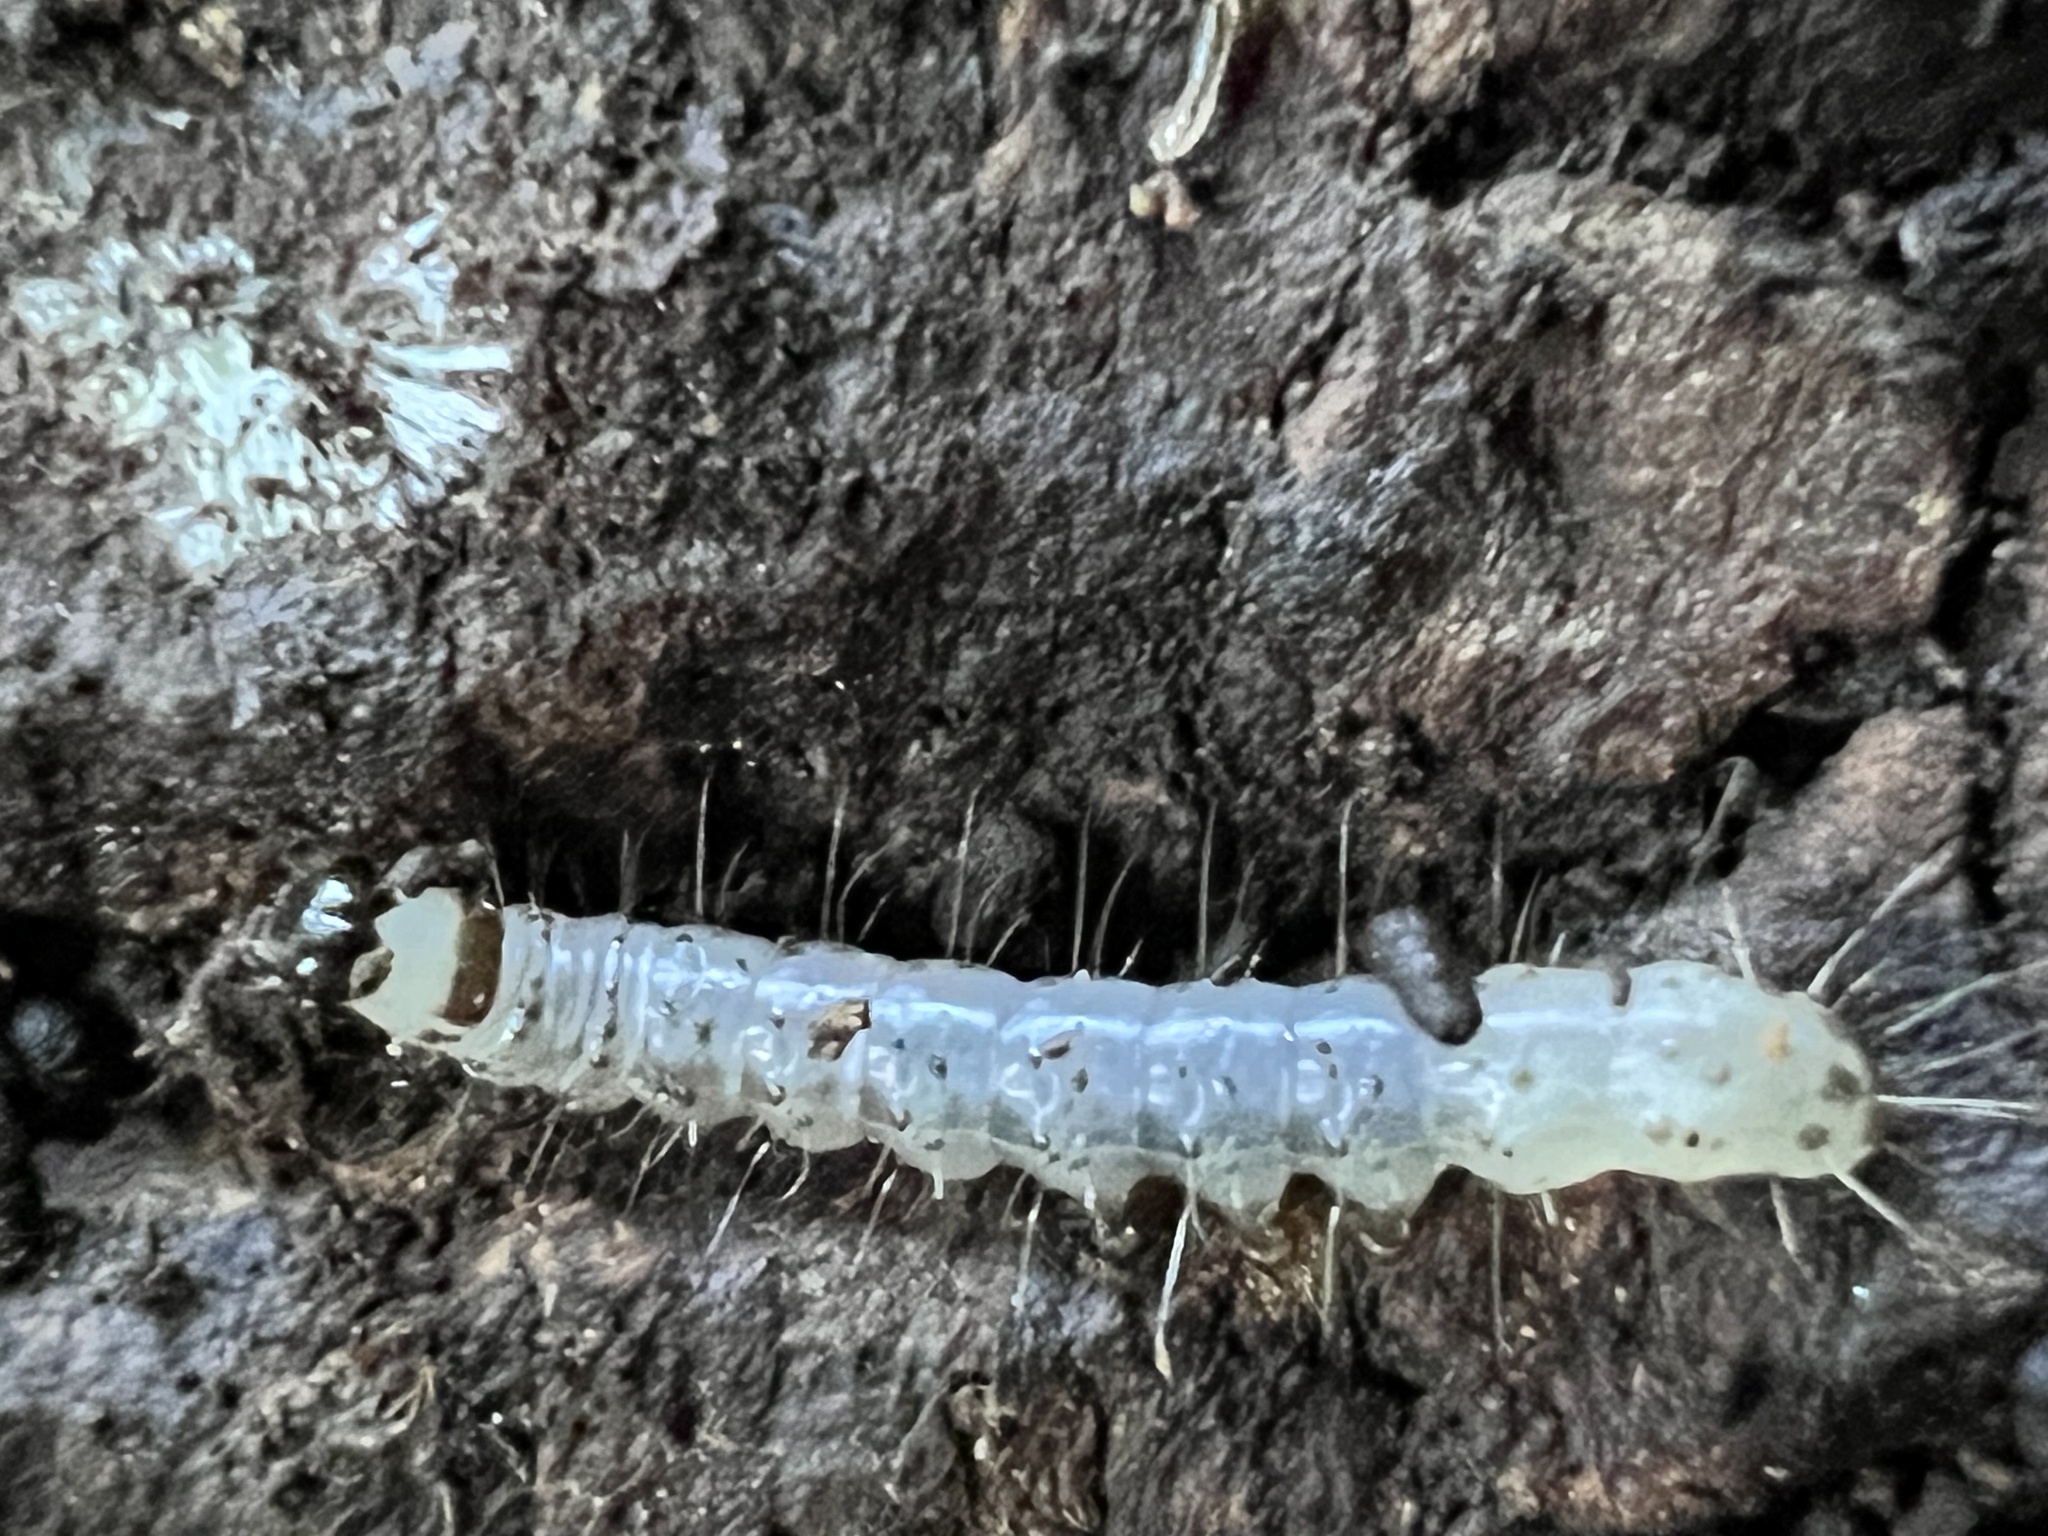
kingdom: Animalia
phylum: Arthropoda
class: Insecta
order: Lepidoptera
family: Erebidae
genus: Scolecocampa
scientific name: Scolecocampa liburna
